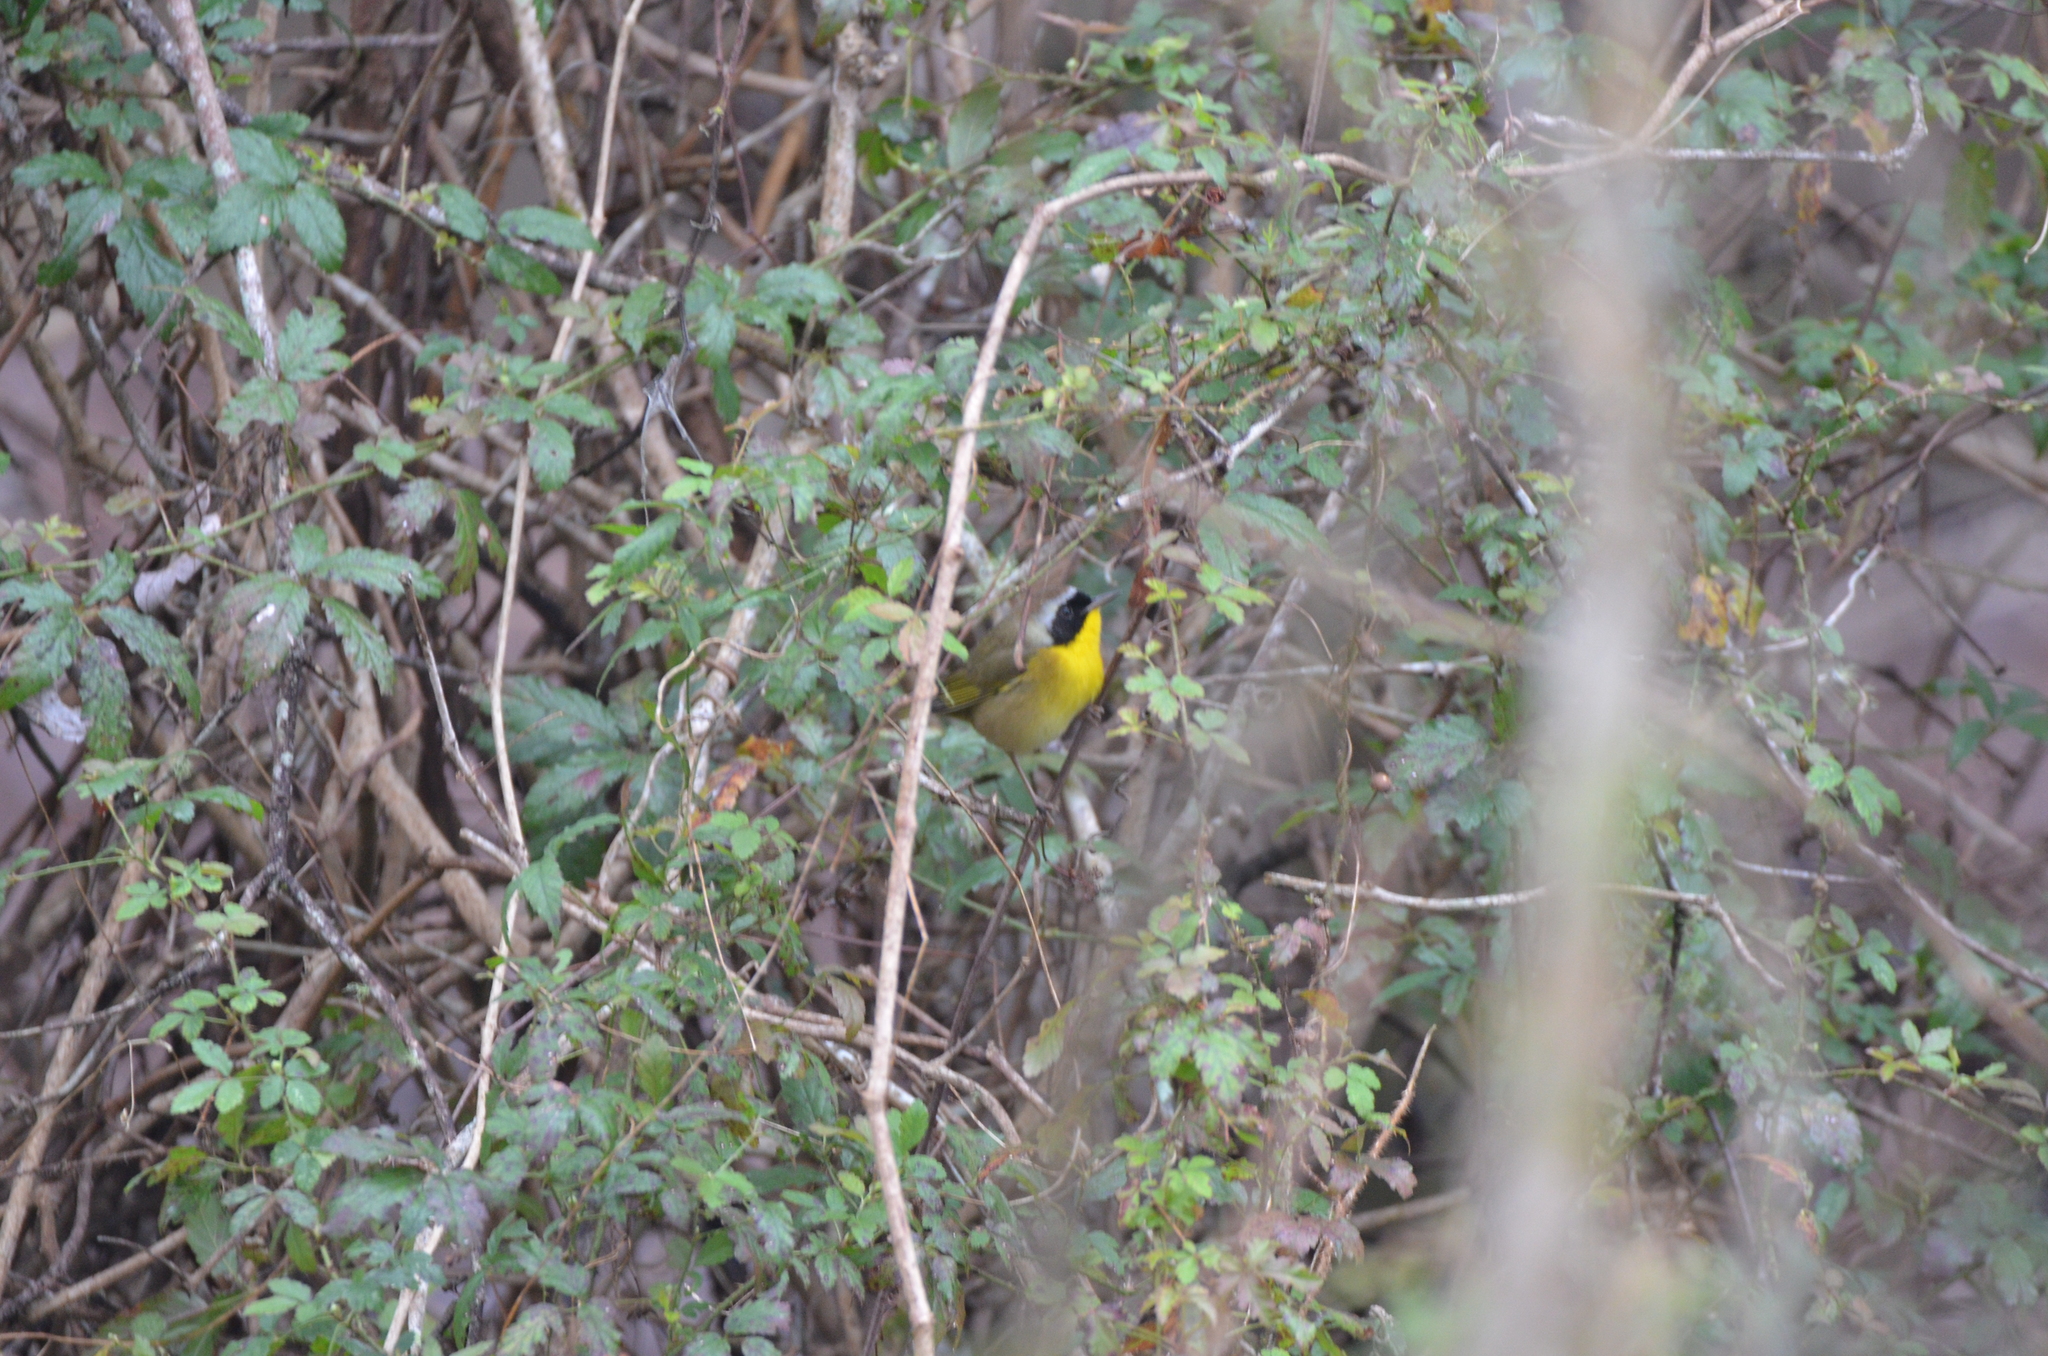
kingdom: Animalia
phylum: Chordata
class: Aves
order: Passeriformes
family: Parulidae
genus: Geothlypis
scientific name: Geothlypis trichas
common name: Common yellowthroat
